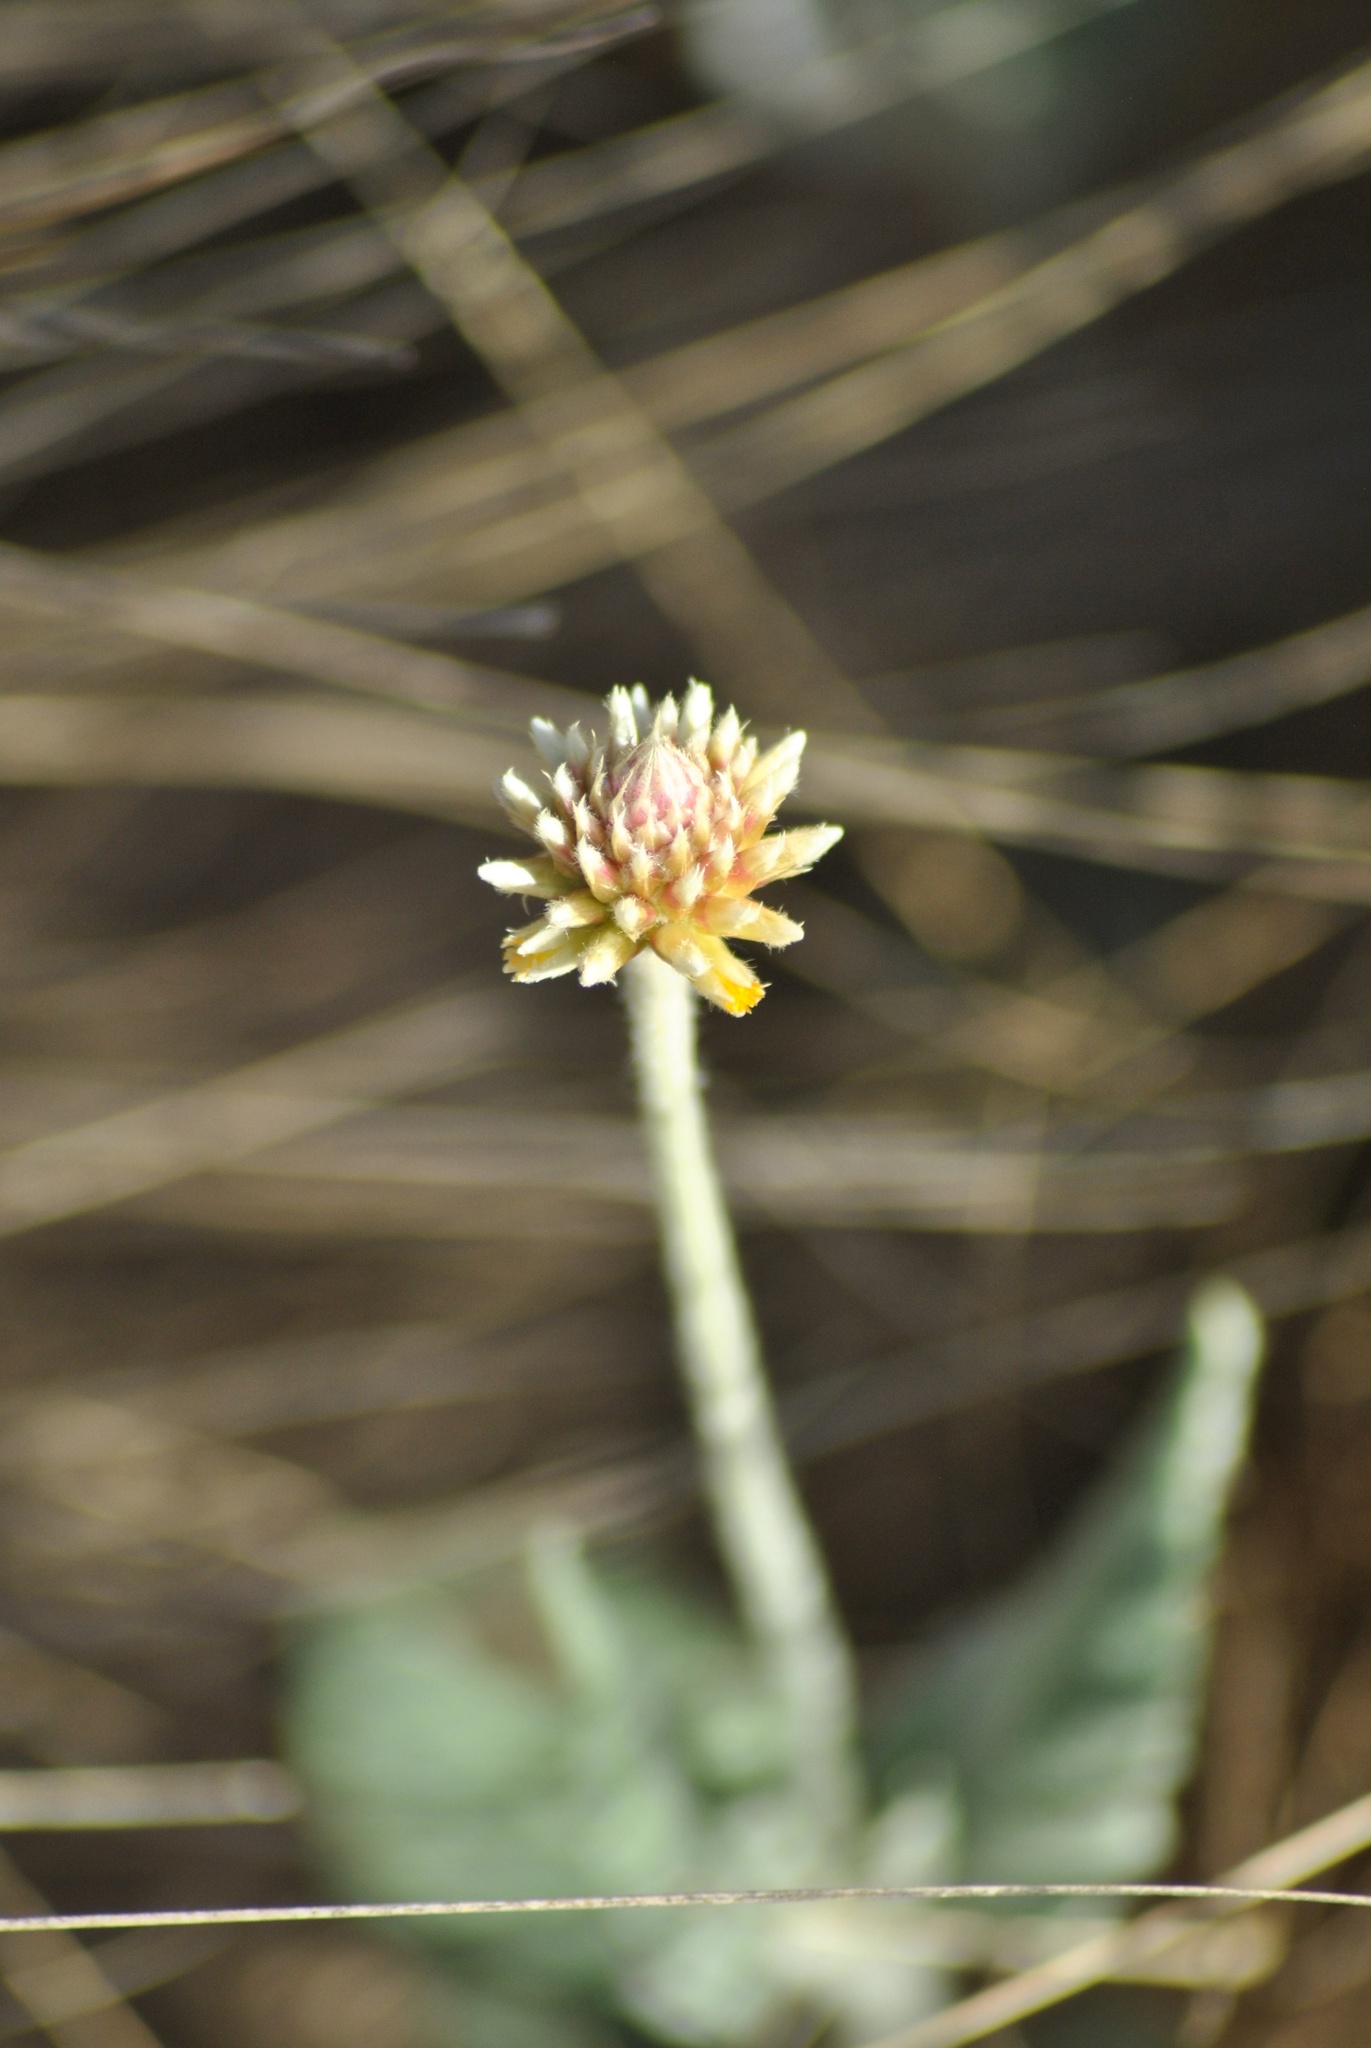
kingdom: Plantae
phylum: Tracheophyta
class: Magnoliopsida
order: Caryophyllales
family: Amaranthaceae
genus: Pfaffia
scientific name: Pfaffia gnaphalioides
